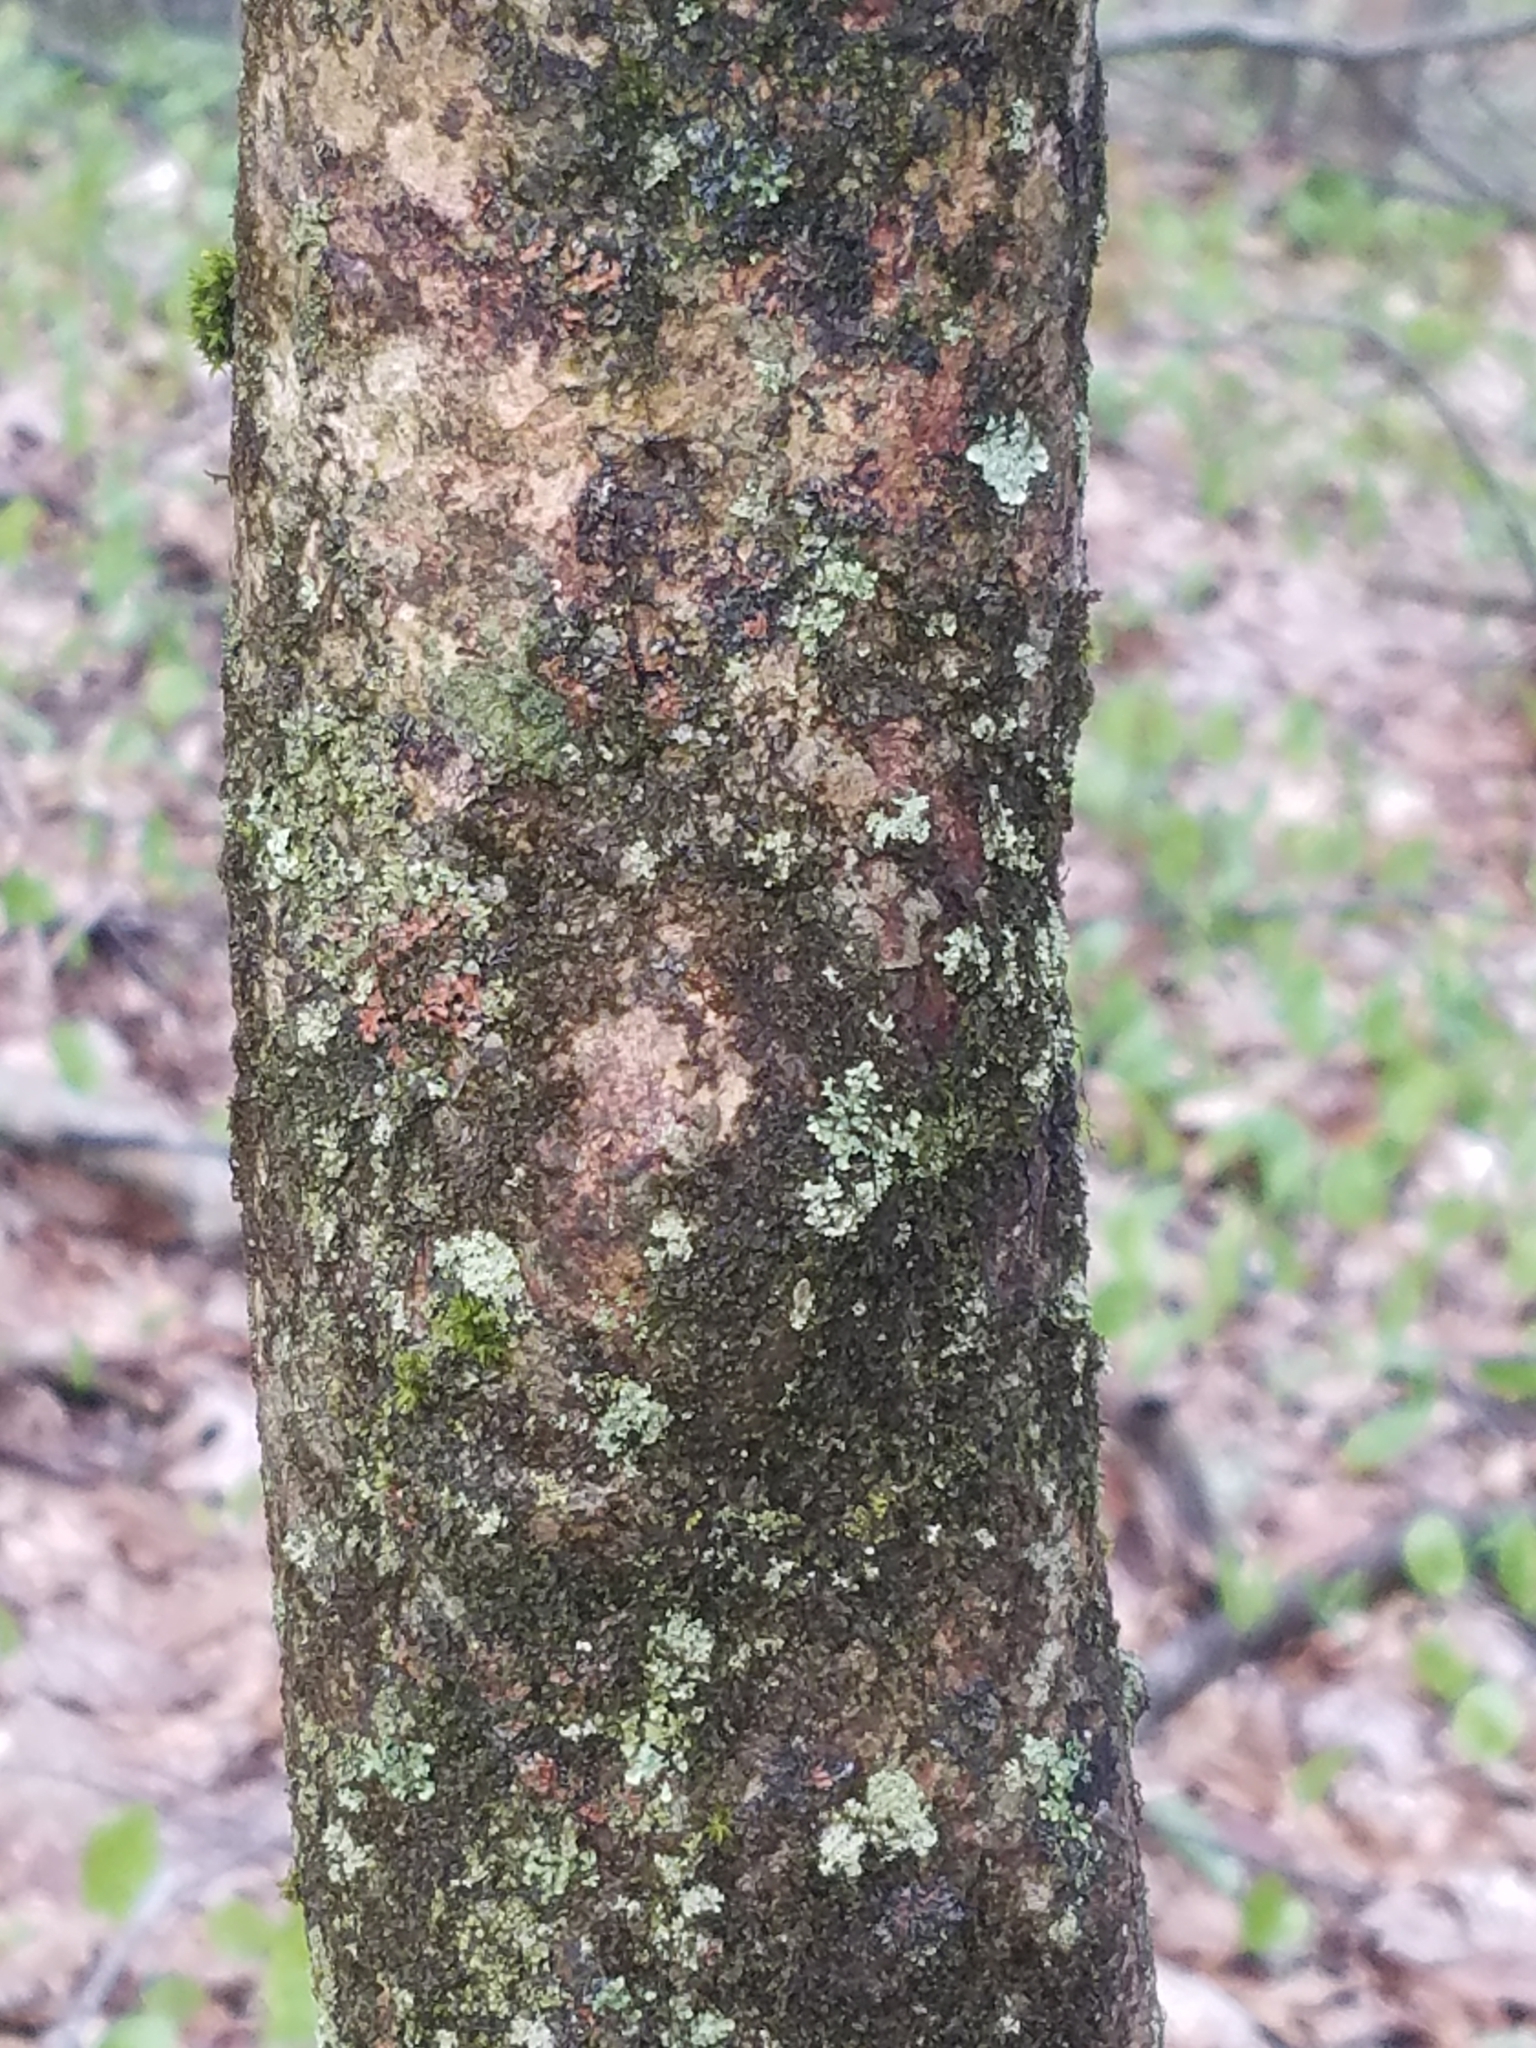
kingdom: Plantae
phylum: Tracheophyta
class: Magnoliopsida
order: Cornales
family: Cornaceae
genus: Cornus
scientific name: Cornus florida
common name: Flowering dogwood
